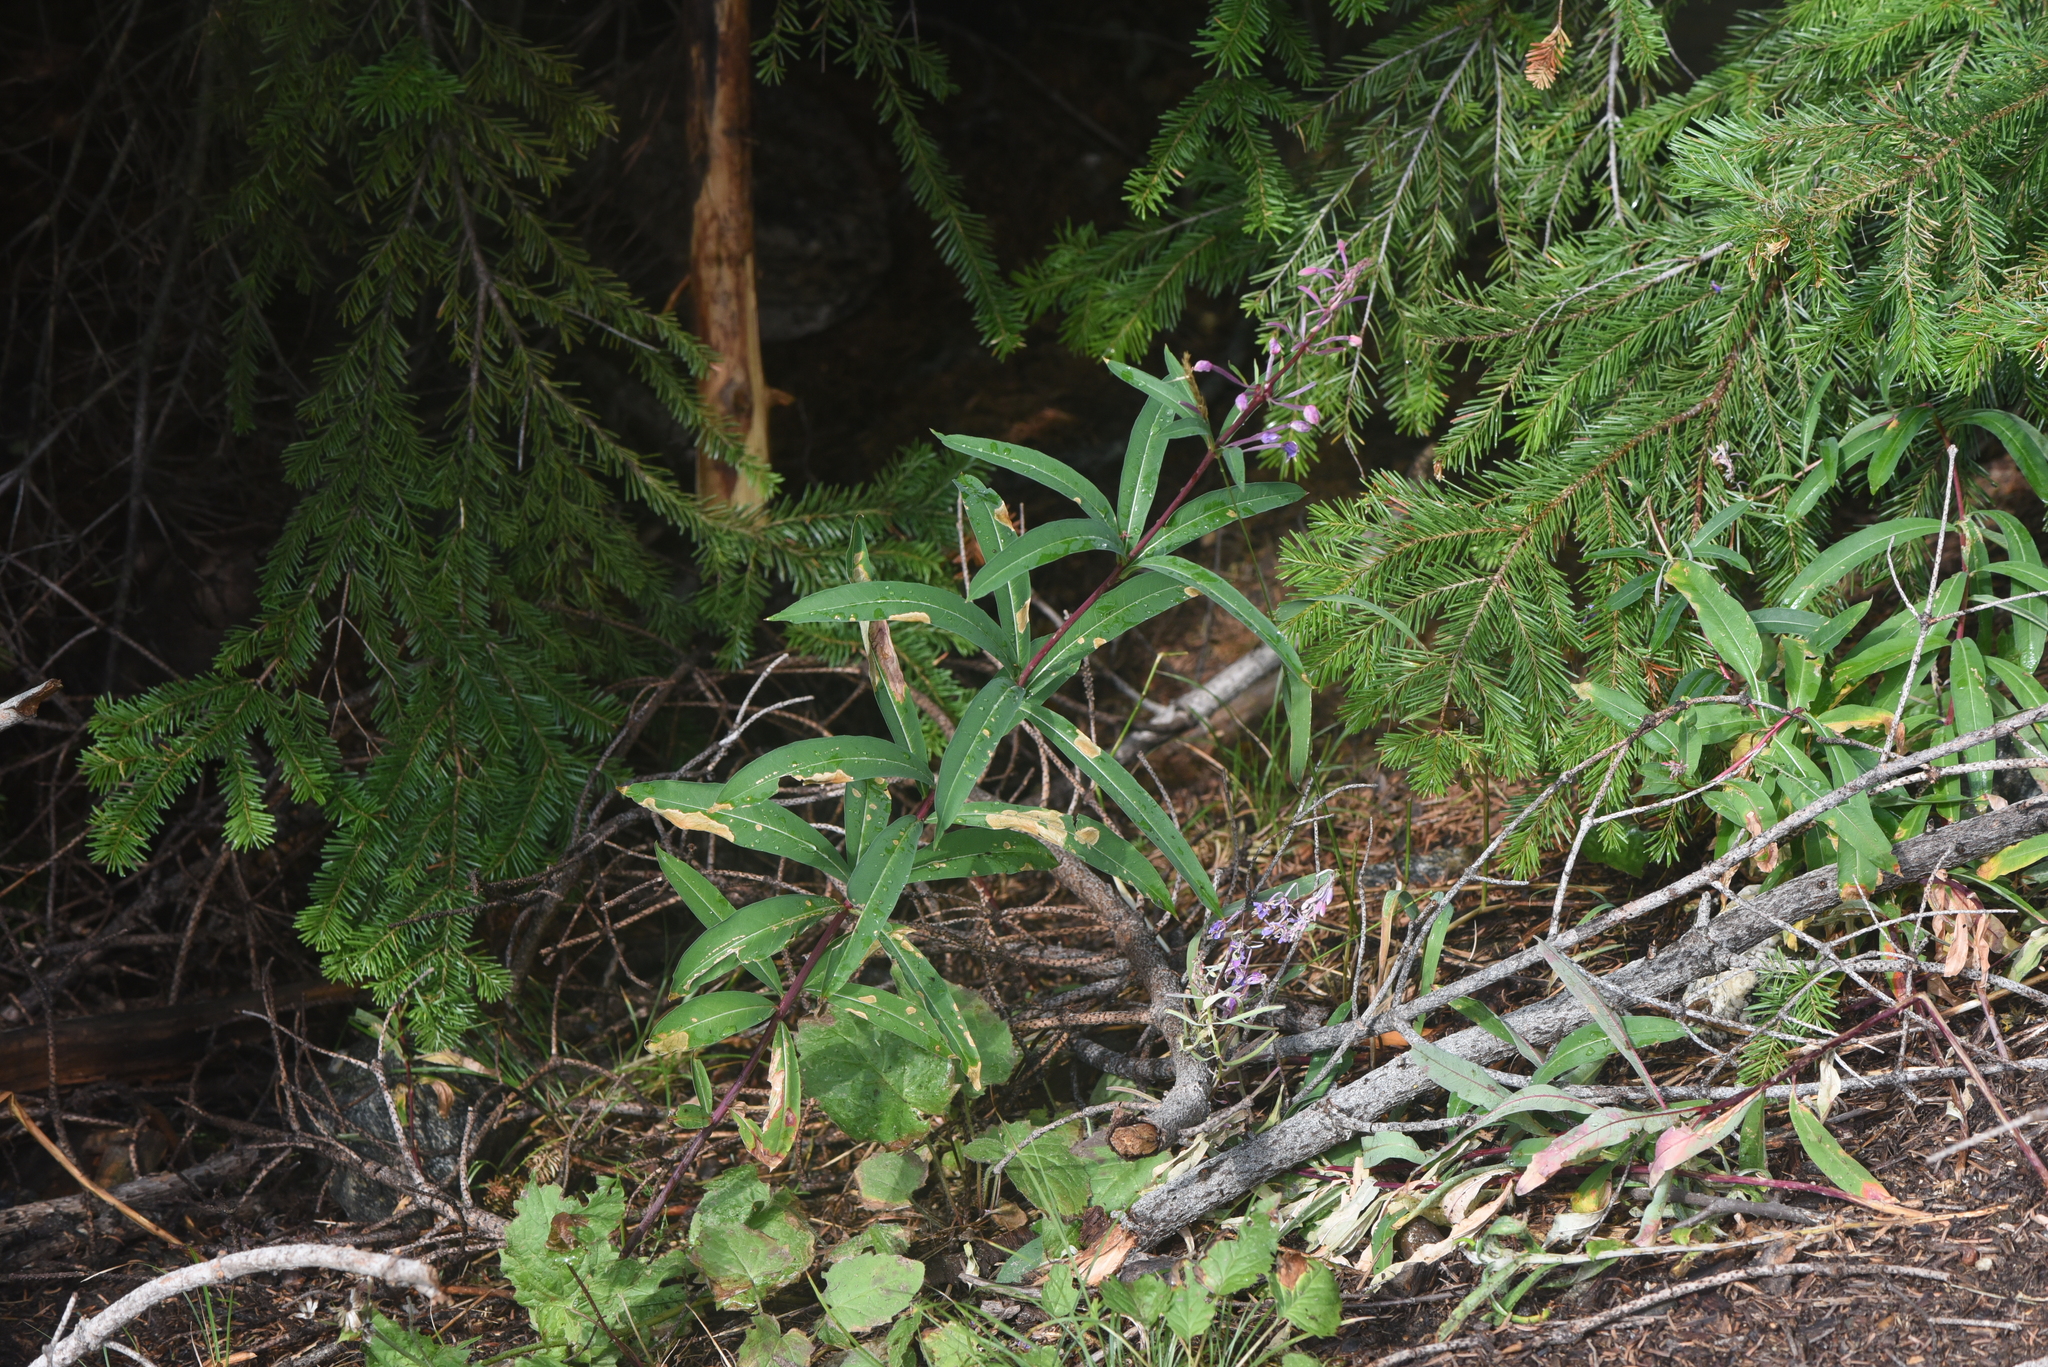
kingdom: Plantae
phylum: Tracheophyta
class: Magnoliopsida
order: Myrtales
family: Onagraceae
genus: Chamaenerion
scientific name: Chamaenerion angustifolium
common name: Fireweed
